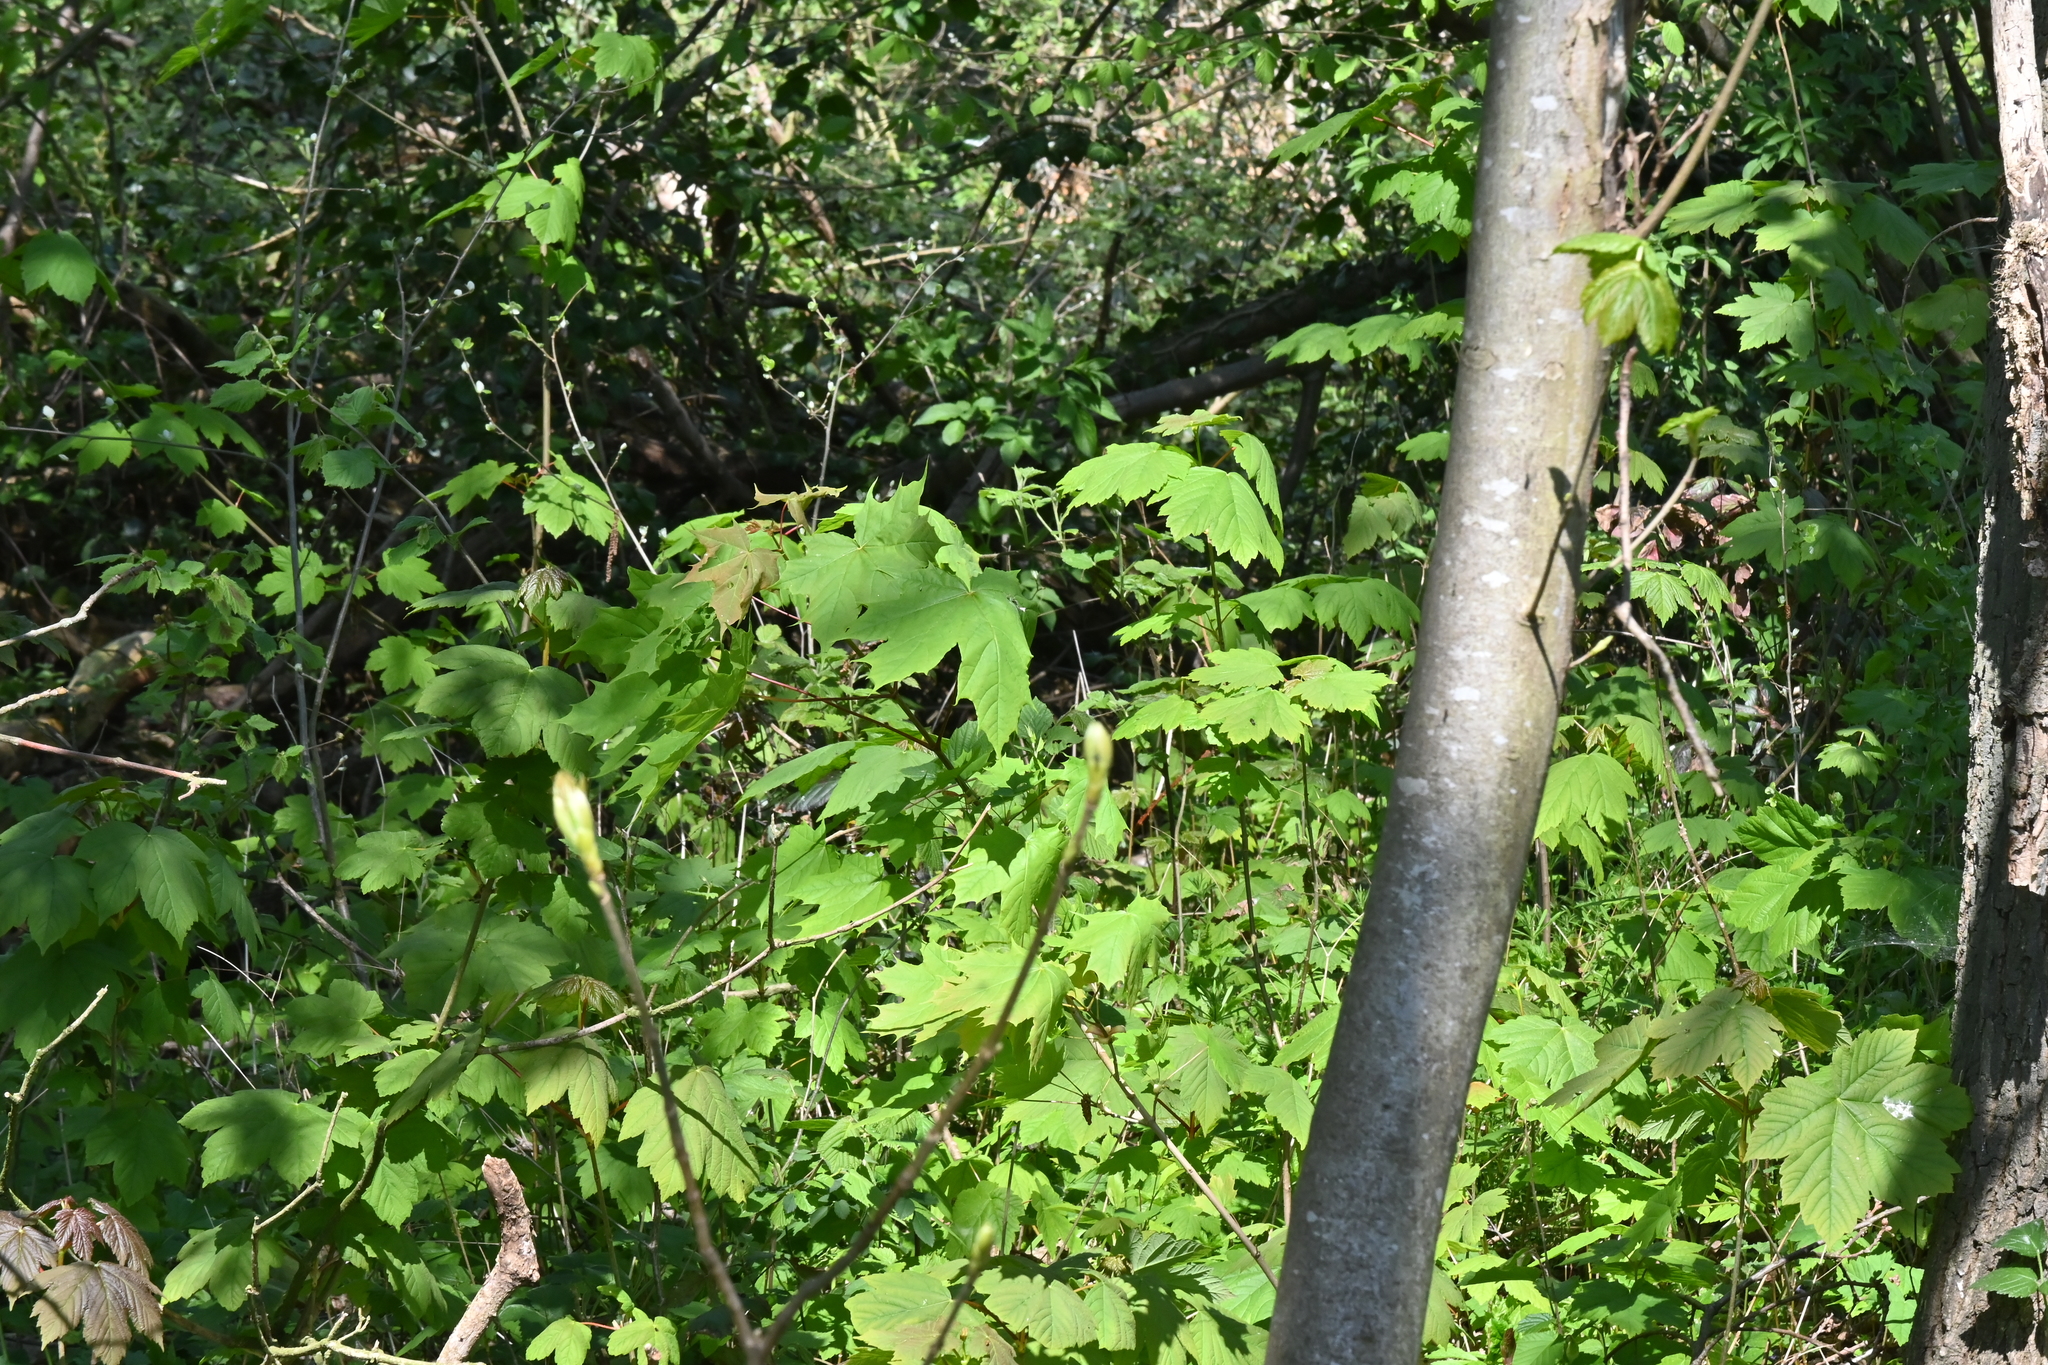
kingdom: Plantae
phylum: Tracheophyta
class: Magnoliopsida
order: Sapindales
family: Sapindaceae
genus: Acer
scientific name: Acer pseudoplatanus
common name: Sycamore
